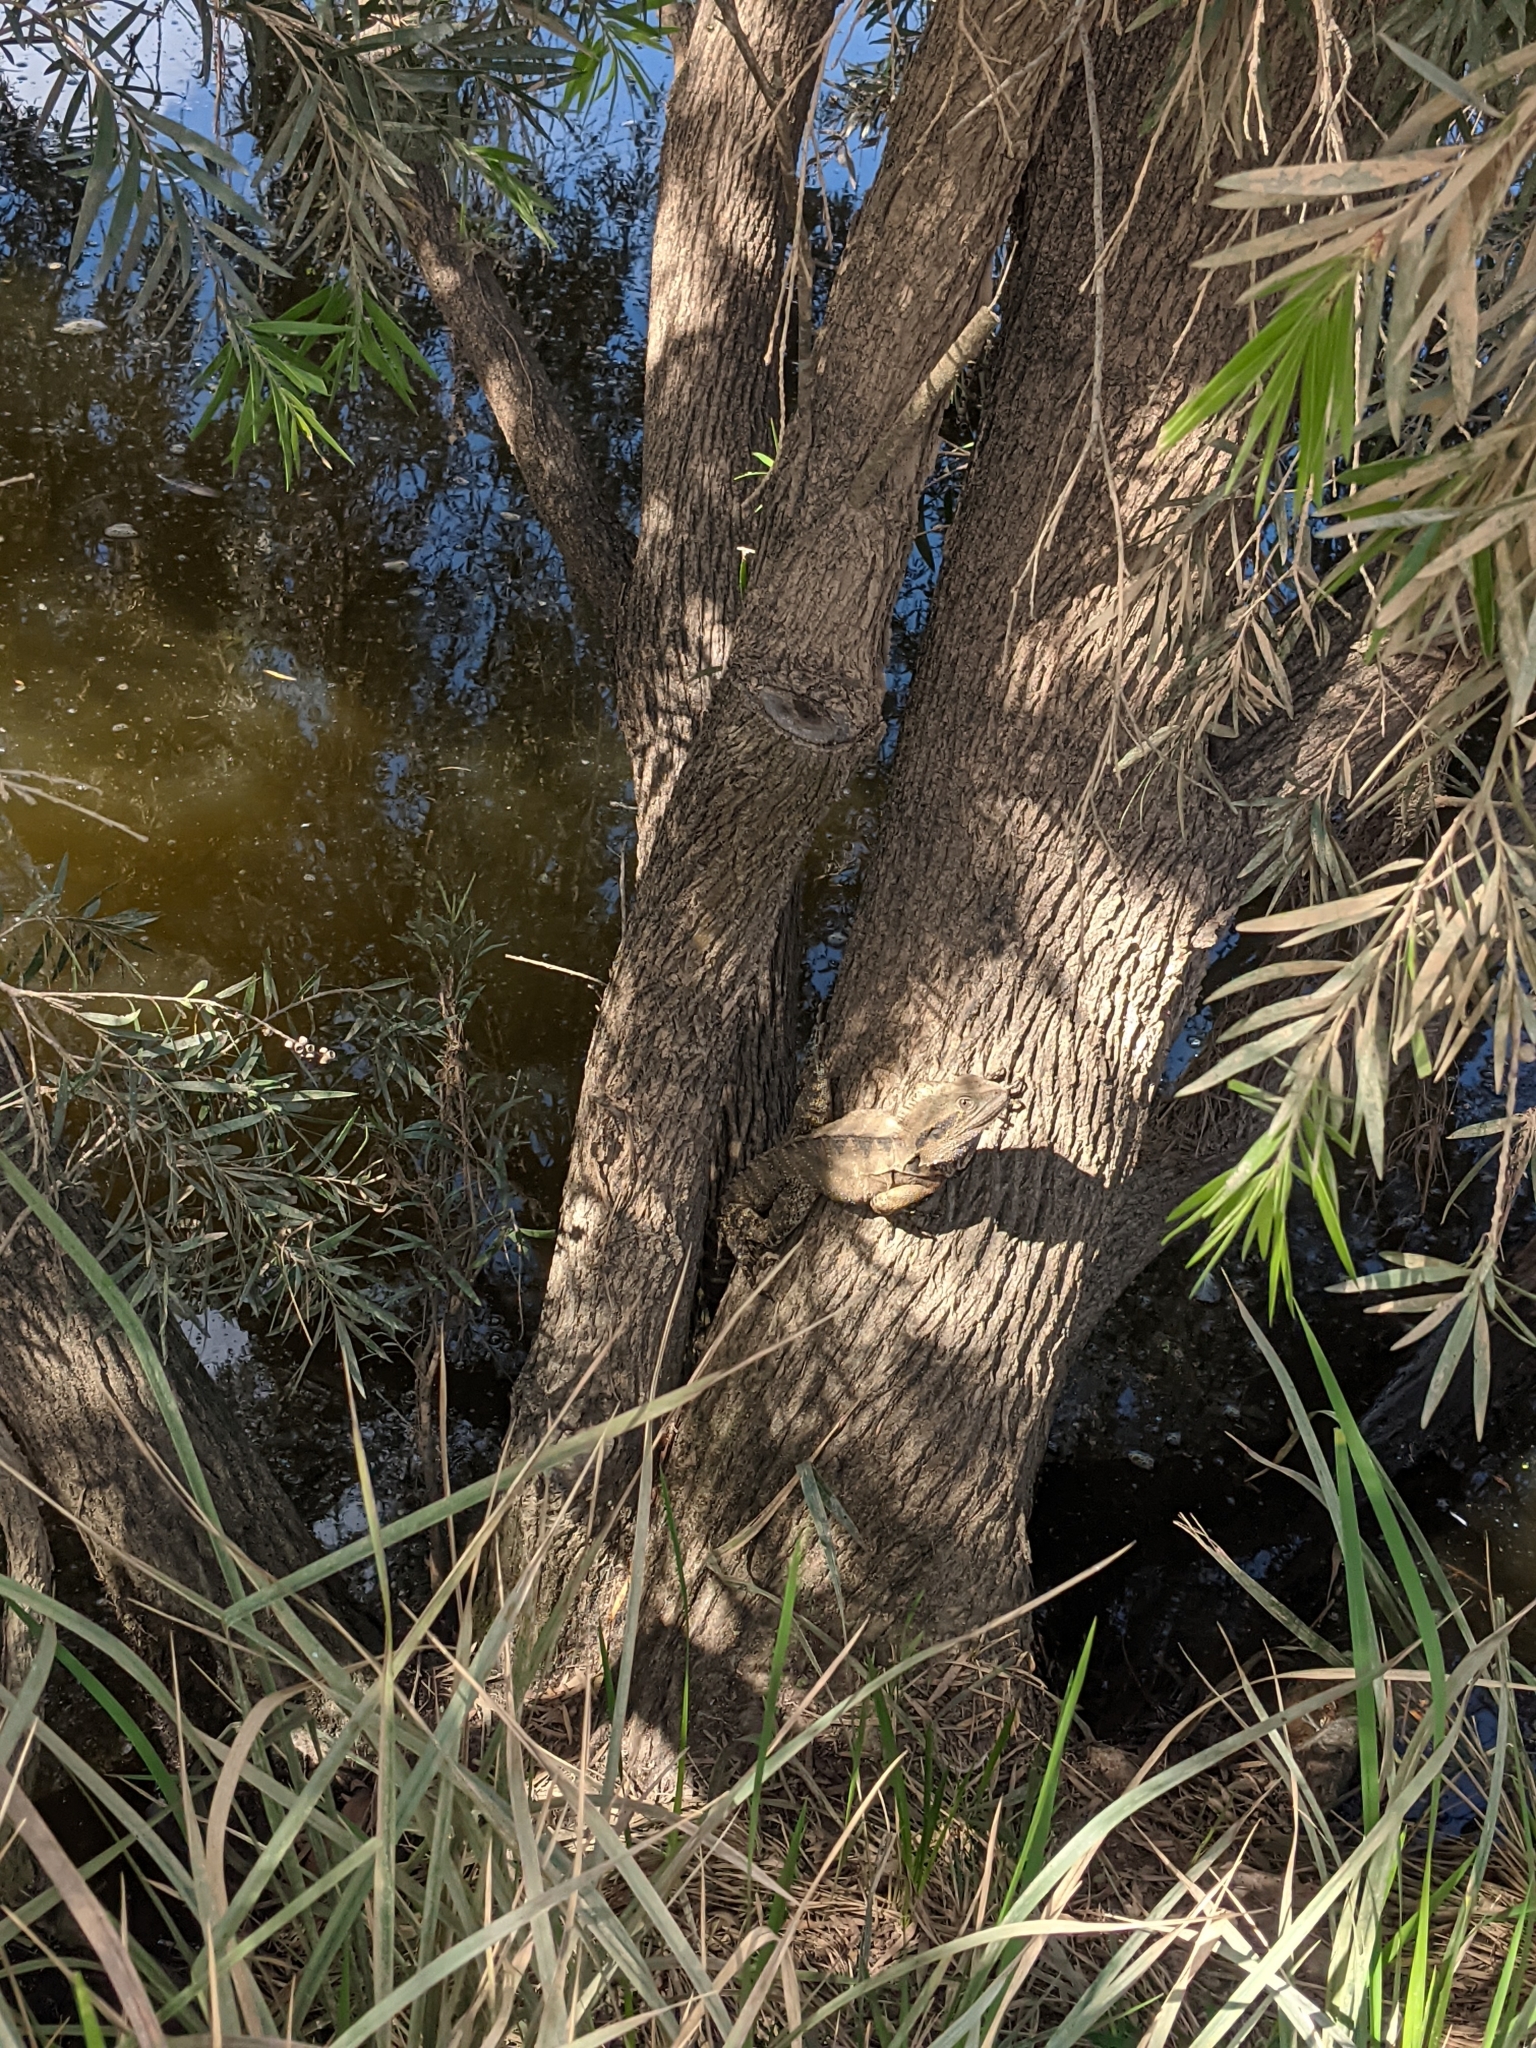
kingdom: Animalia
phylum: Chordata
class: Squamata
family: Agamidae
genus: Intellagama
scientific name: Intellagama lesueurii
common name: Eastern water dragon
